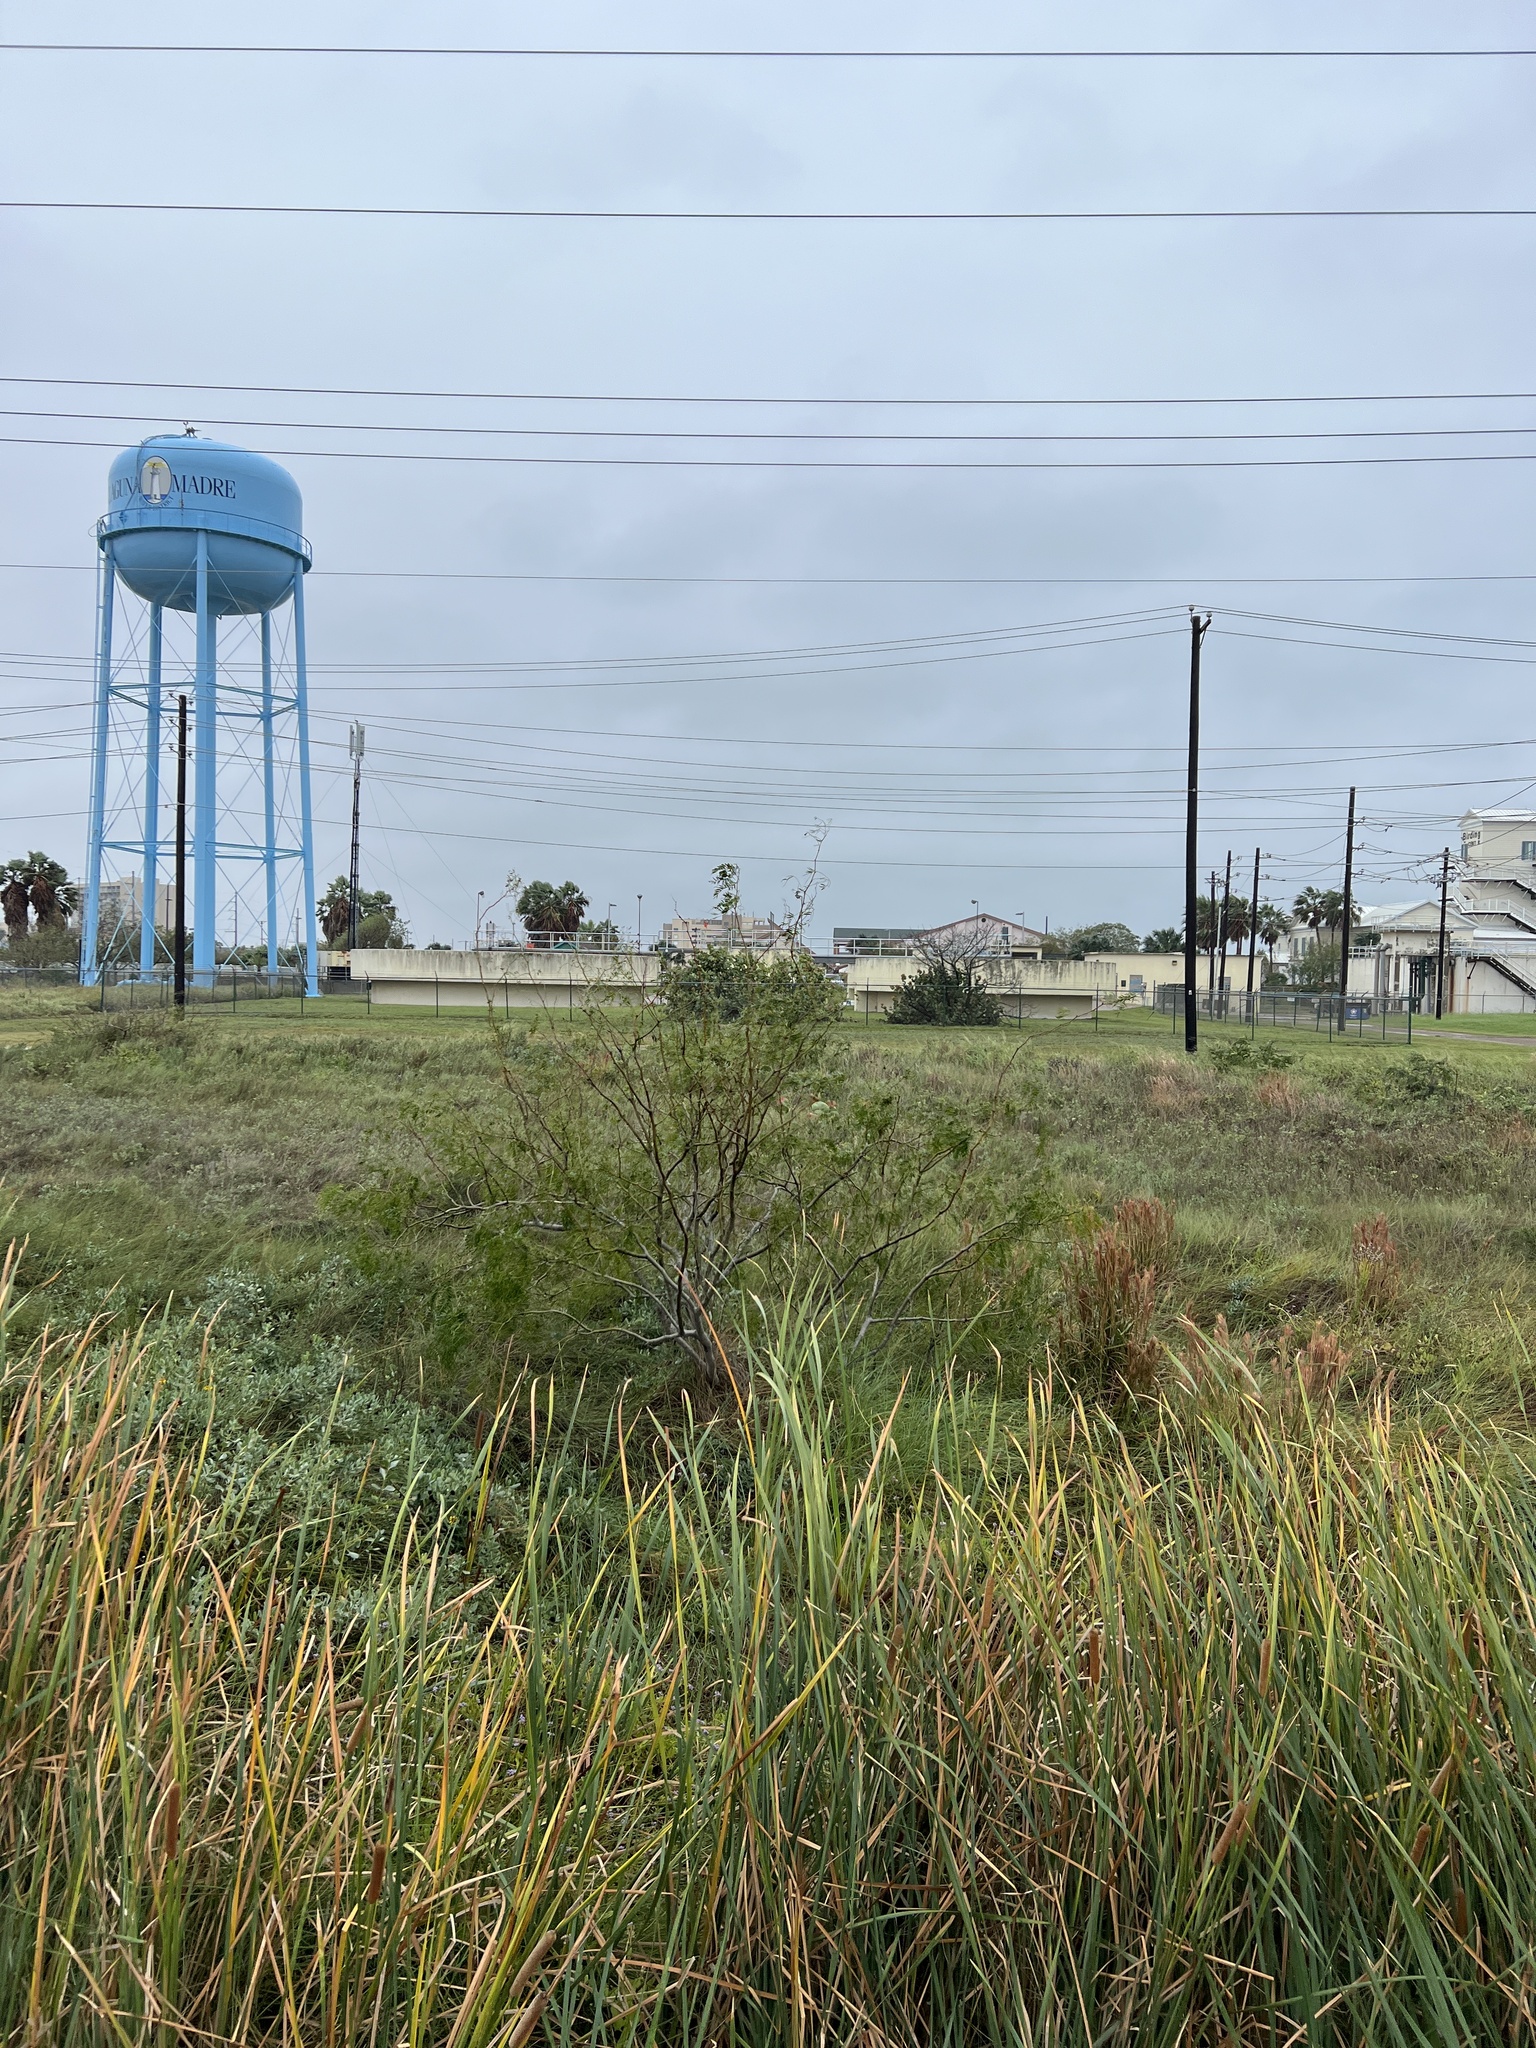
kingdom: Plantae
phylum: Tracheophyta
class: Magnoliopsida
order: Fabales
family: Fabaceae
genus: Prosopis
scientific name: Prosopis glandulosa
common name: Honey mesquite
